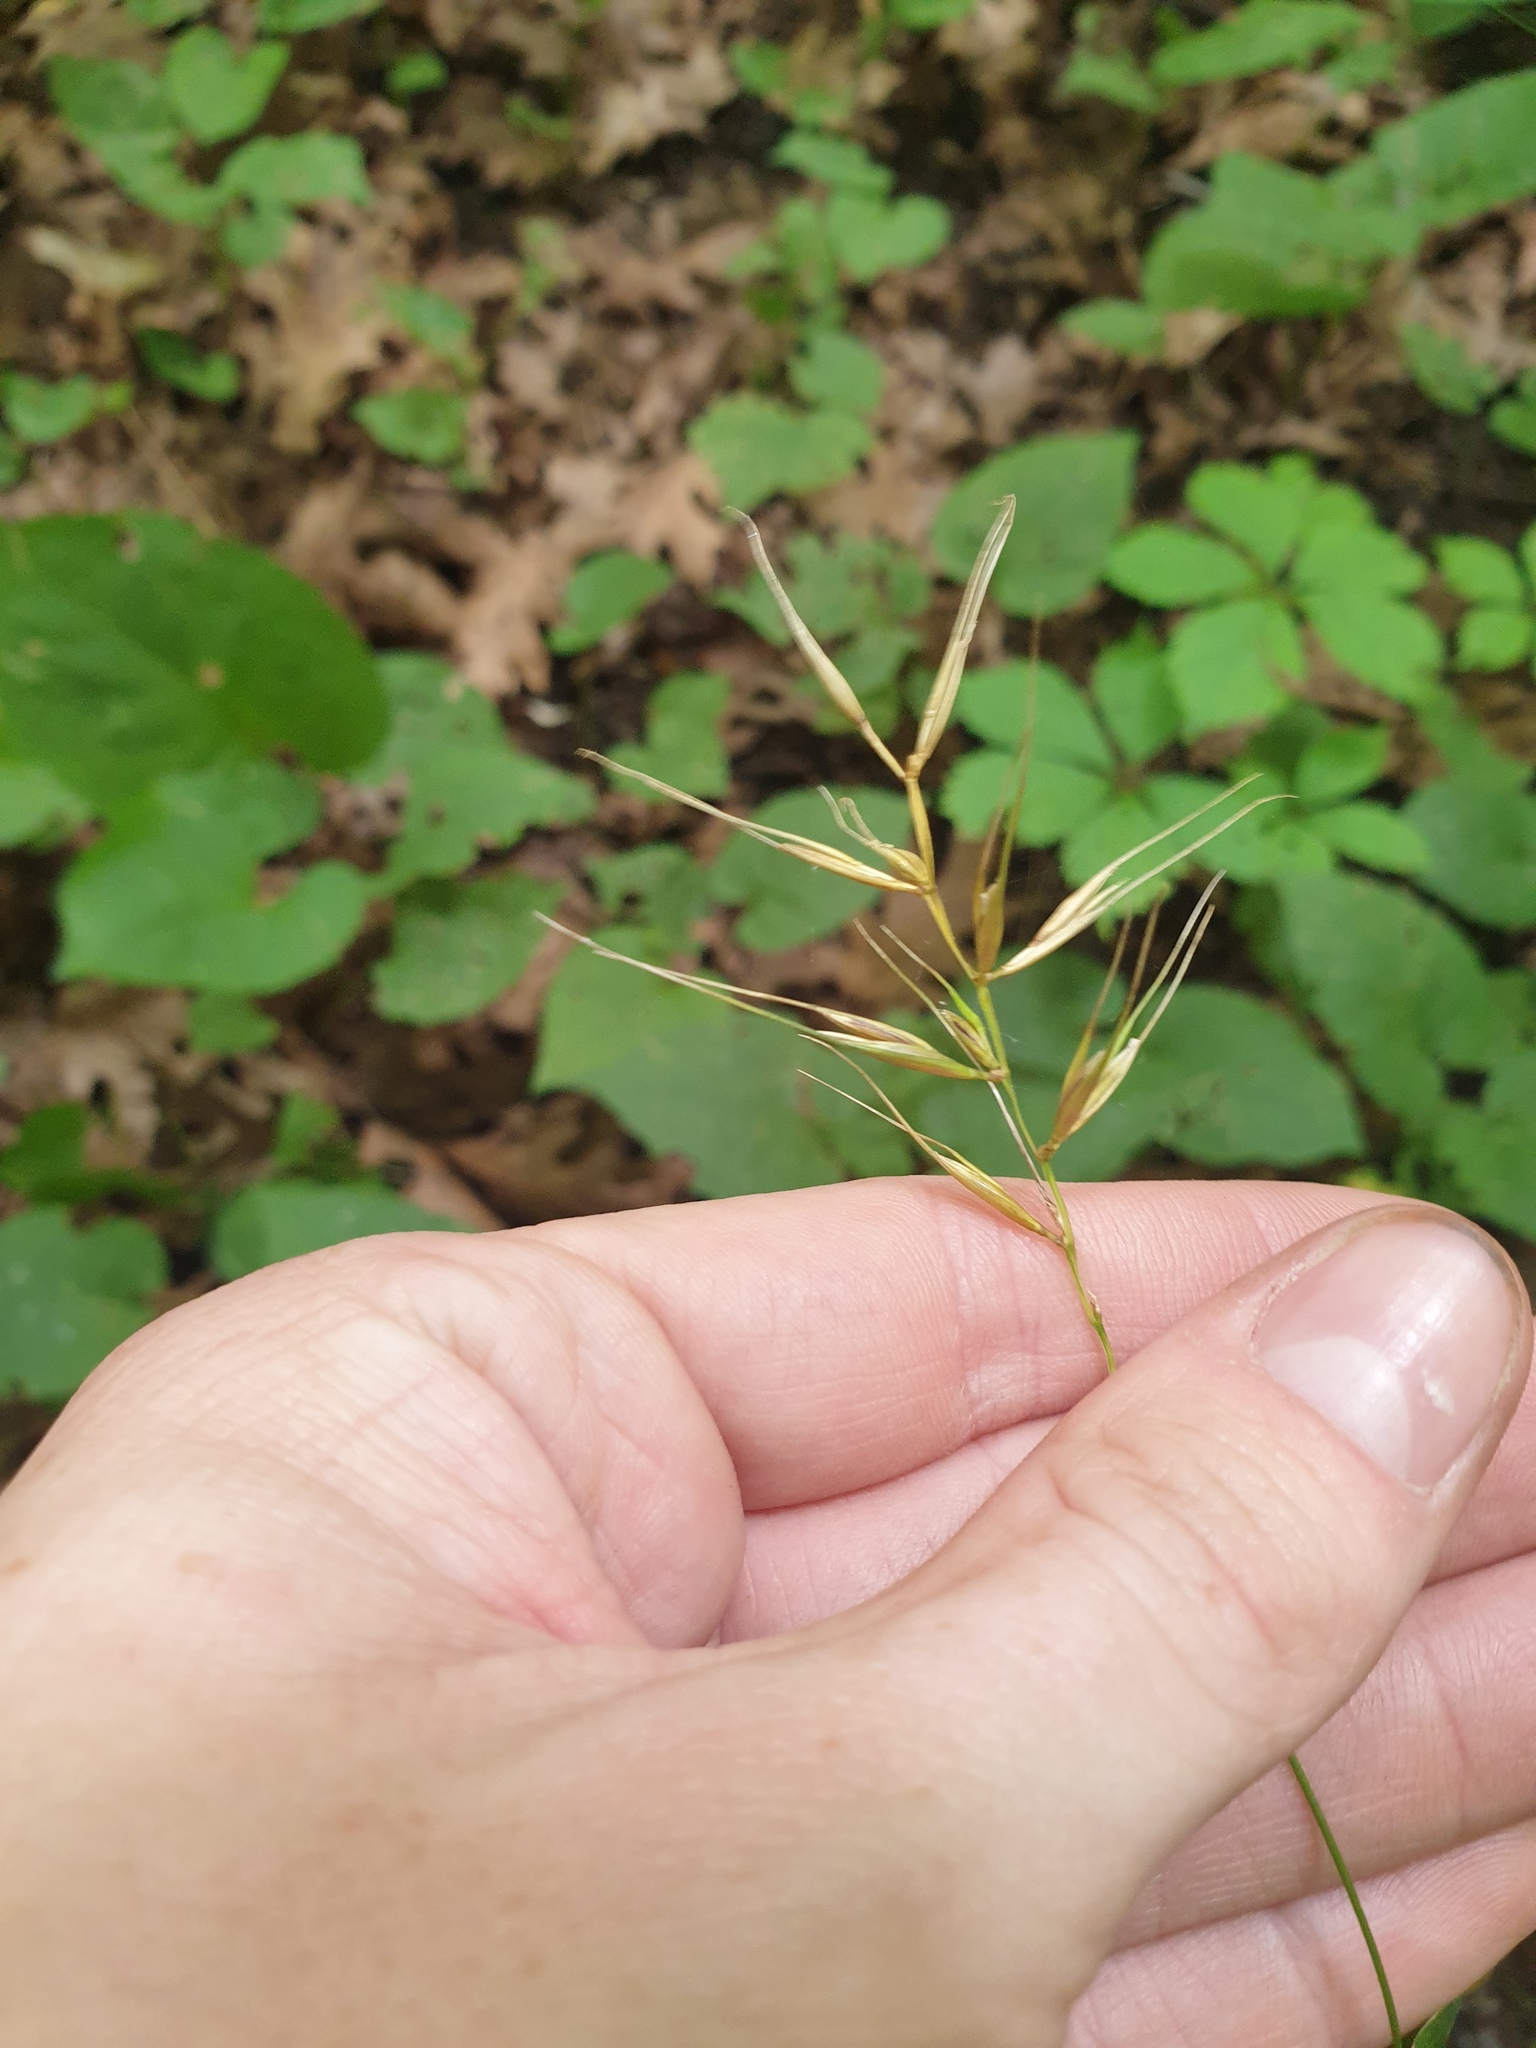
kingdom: Plantae
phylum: Tracheophyta
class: Liliopsida
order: Poales
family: Poaceae
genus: Elymus
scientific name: Elymus hystrix
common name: Bottlebrush grass
